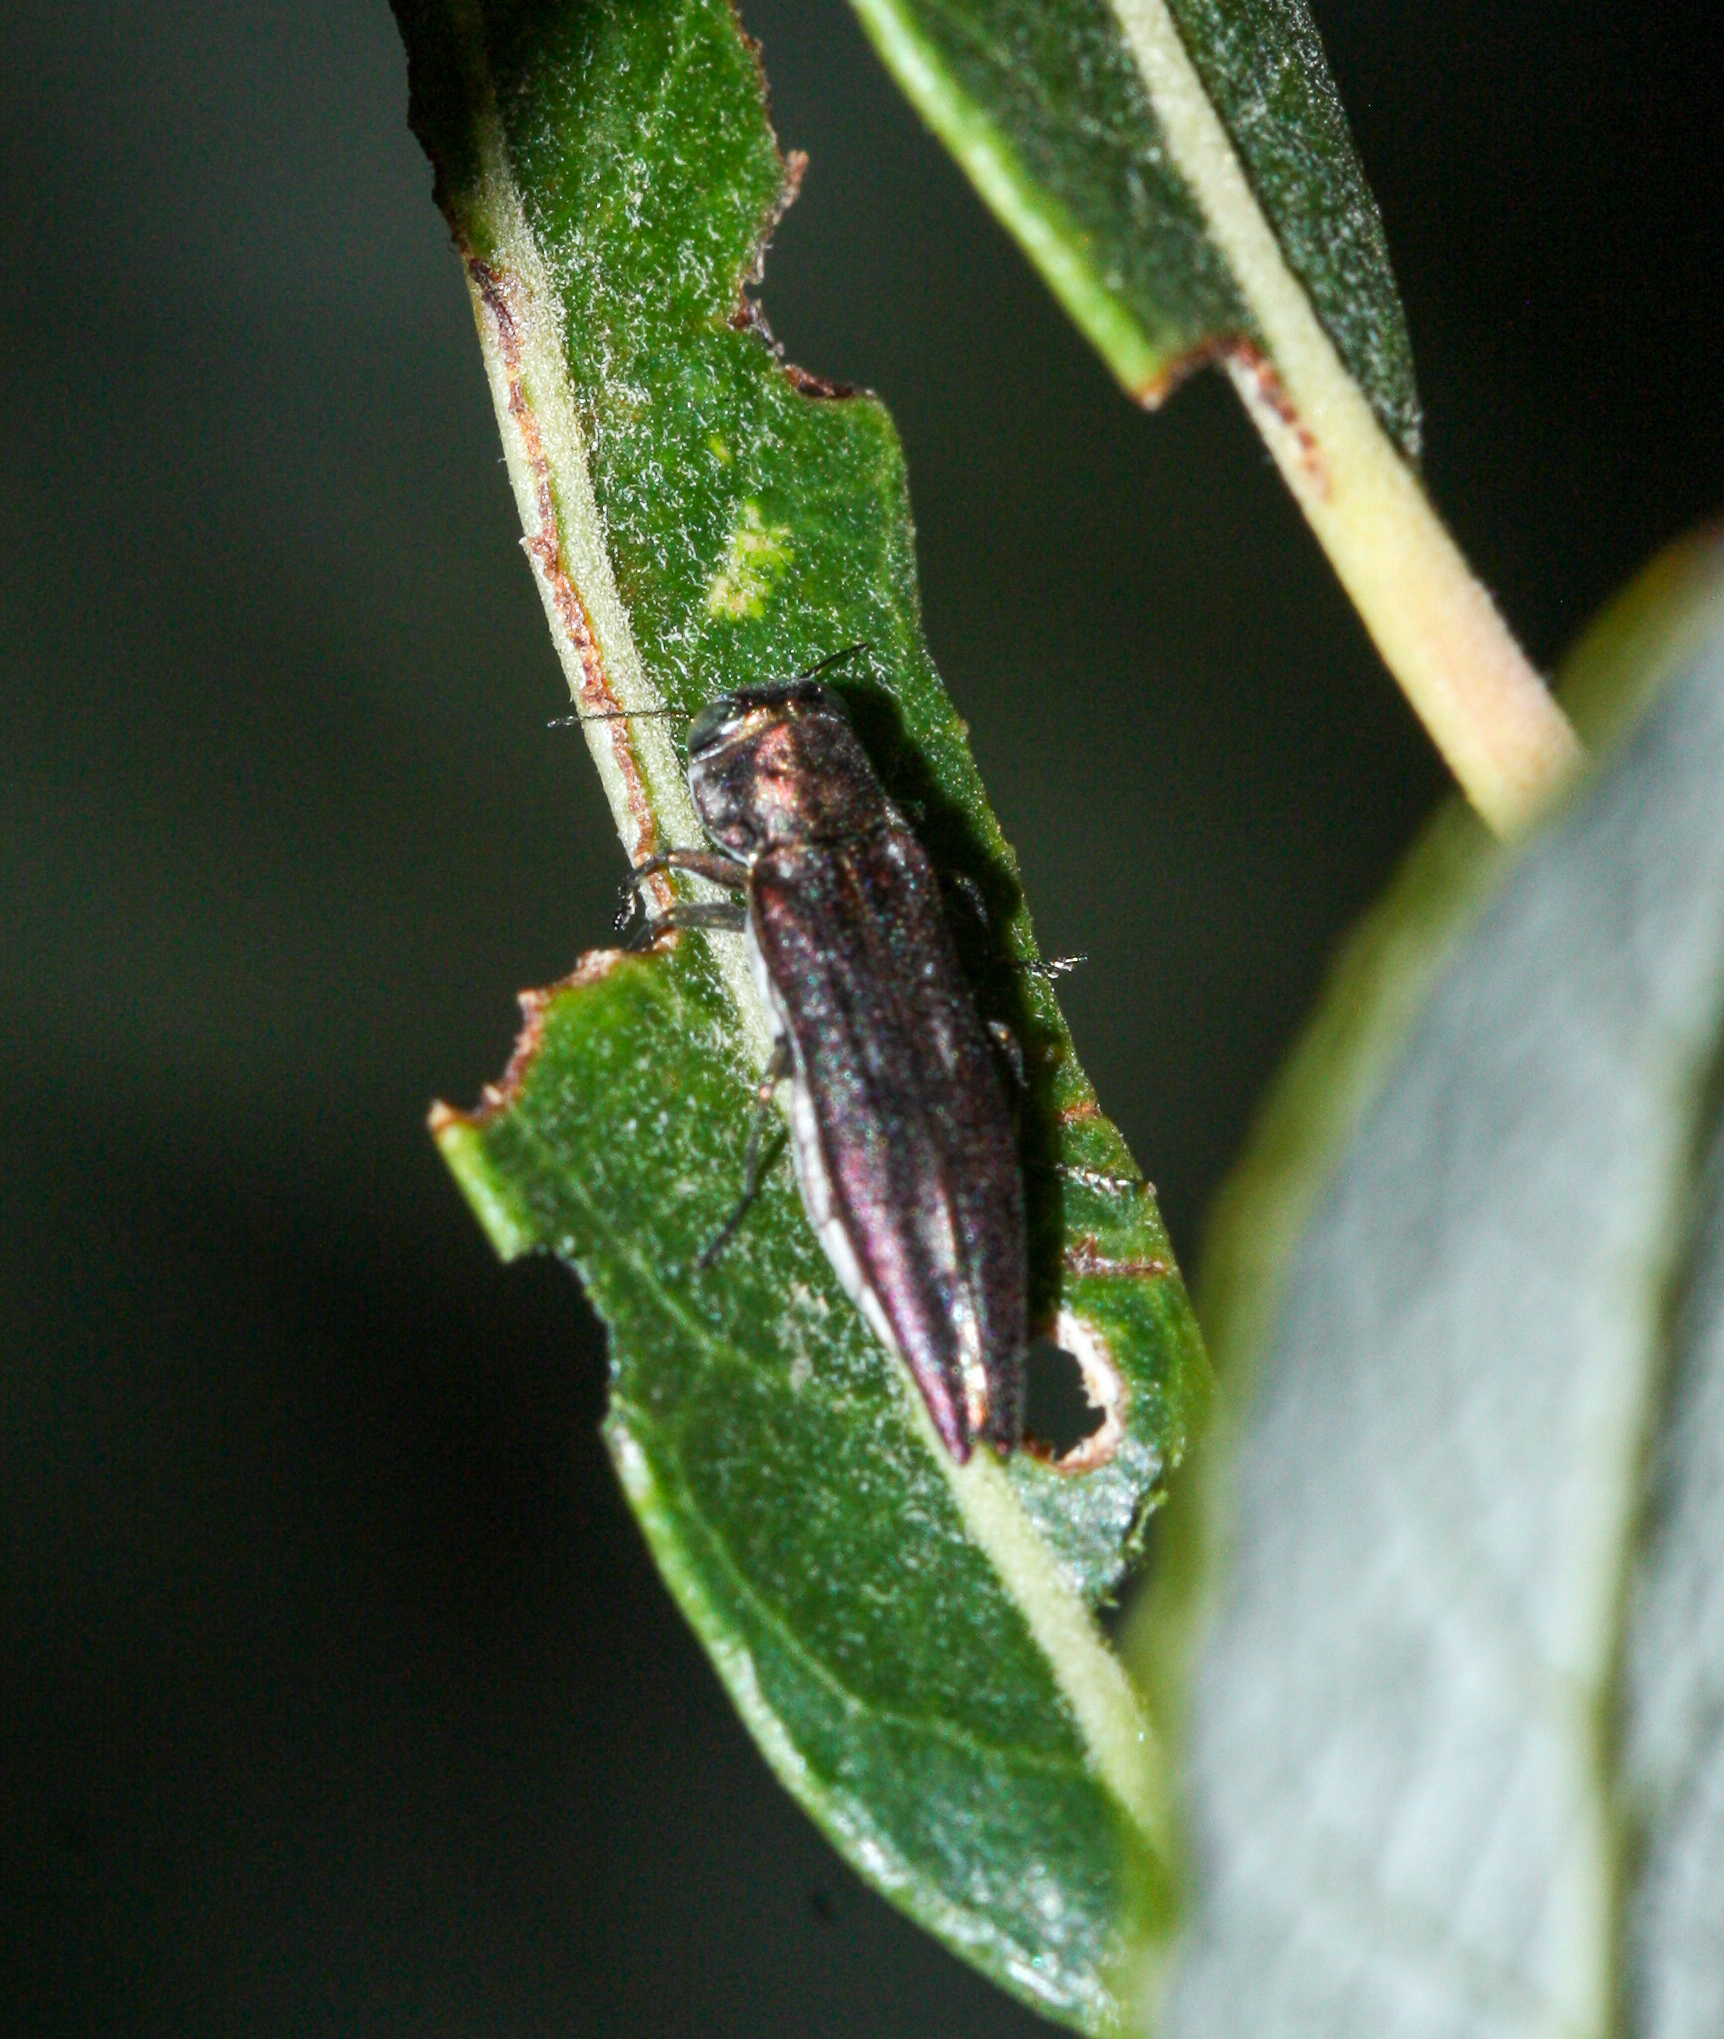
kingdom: Animalia
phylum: Arthropoda
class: Insecta
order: Coleoptera
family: Buprestidae
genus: Agrilus
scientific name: Agrilus quadriguttatus
